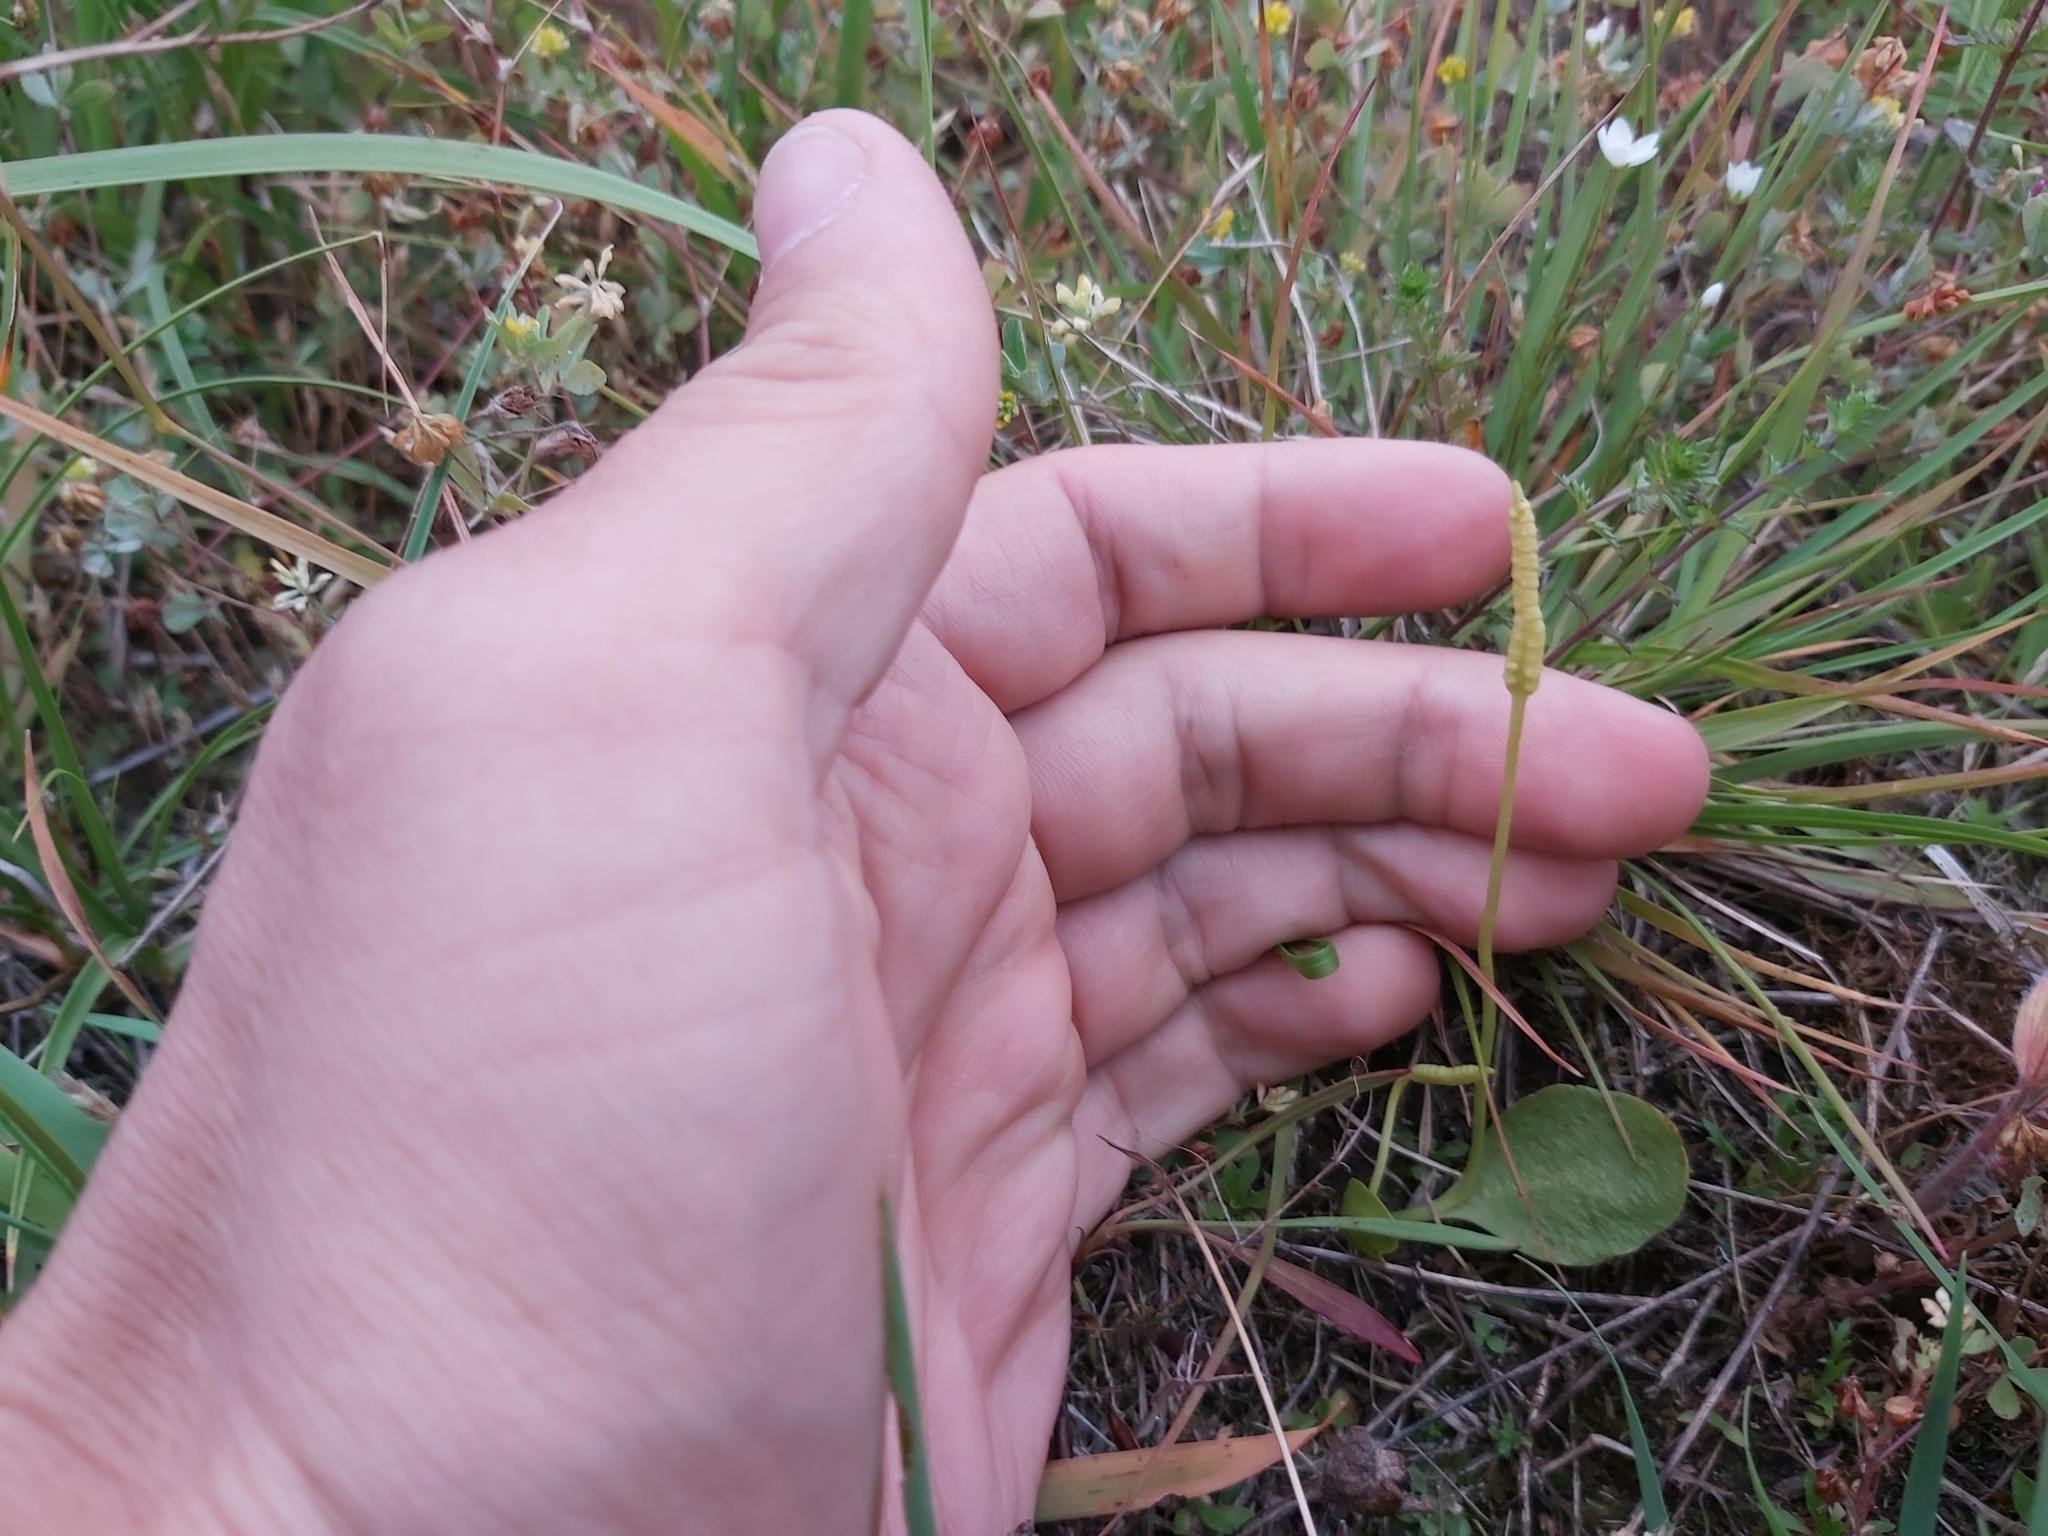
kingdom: Plantae
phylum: Tracheophyta
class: Polypodiopsida
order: Ophioglossales
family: Ophioglossaceae
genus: Ophioglossum
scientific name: Ophioglossum vulgatum
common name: Adder's-tongue
